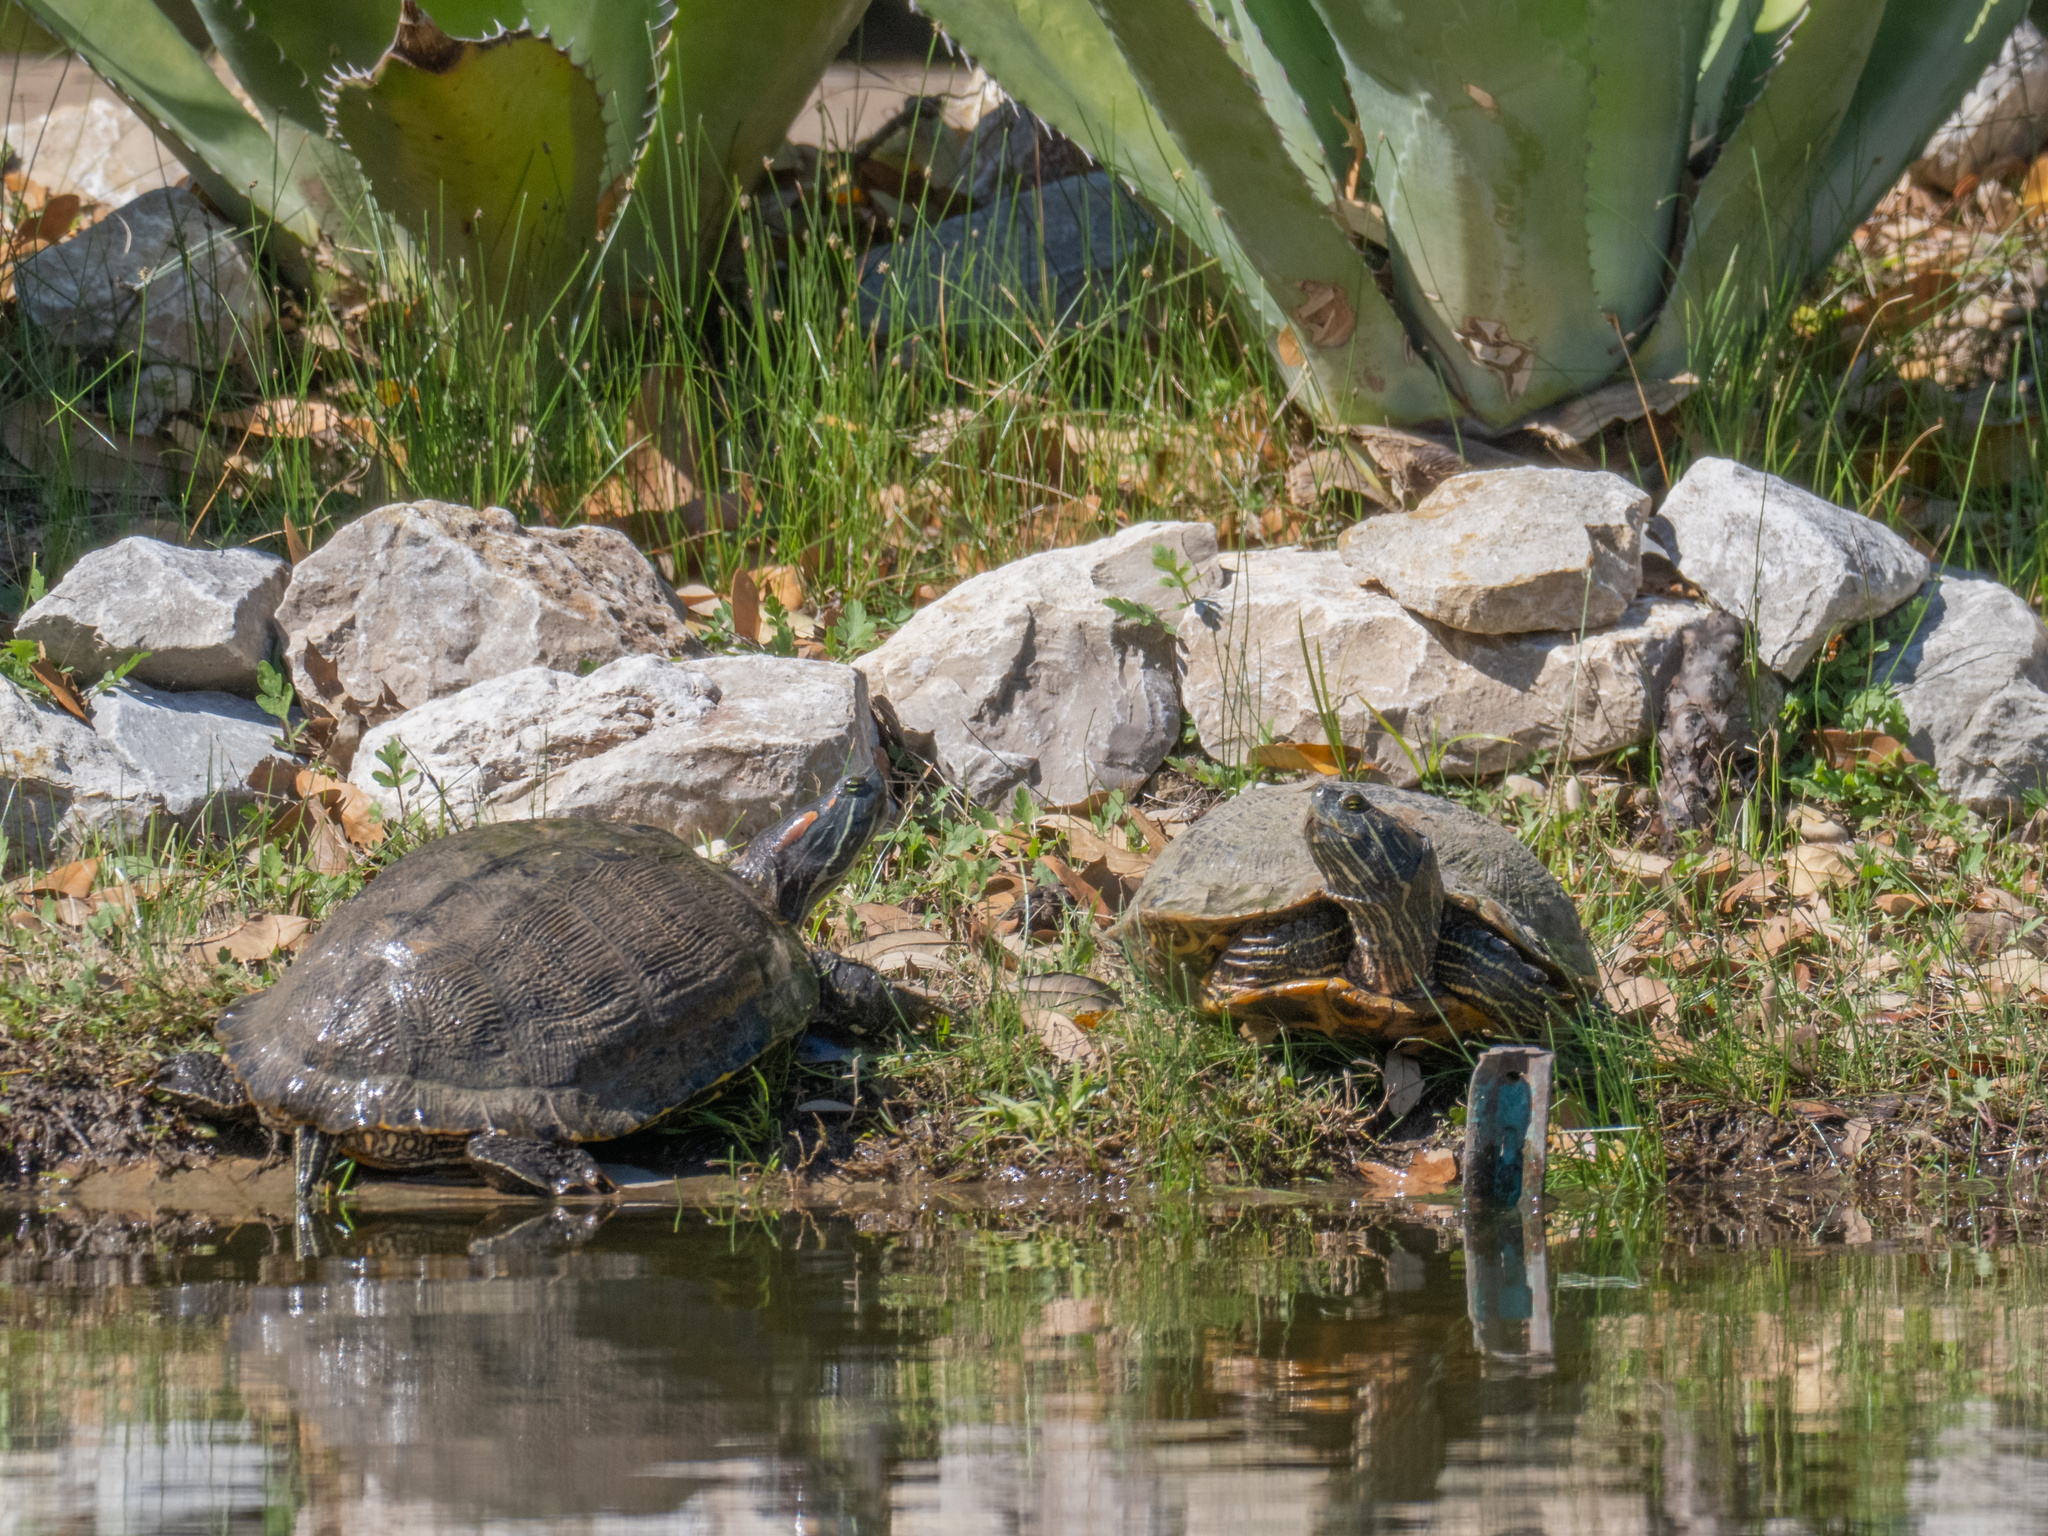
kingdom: Animalia
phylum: Chordata
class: Testudines
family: Emydidae
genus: Trachemys
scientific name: Trachemys scripta
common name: Slider
